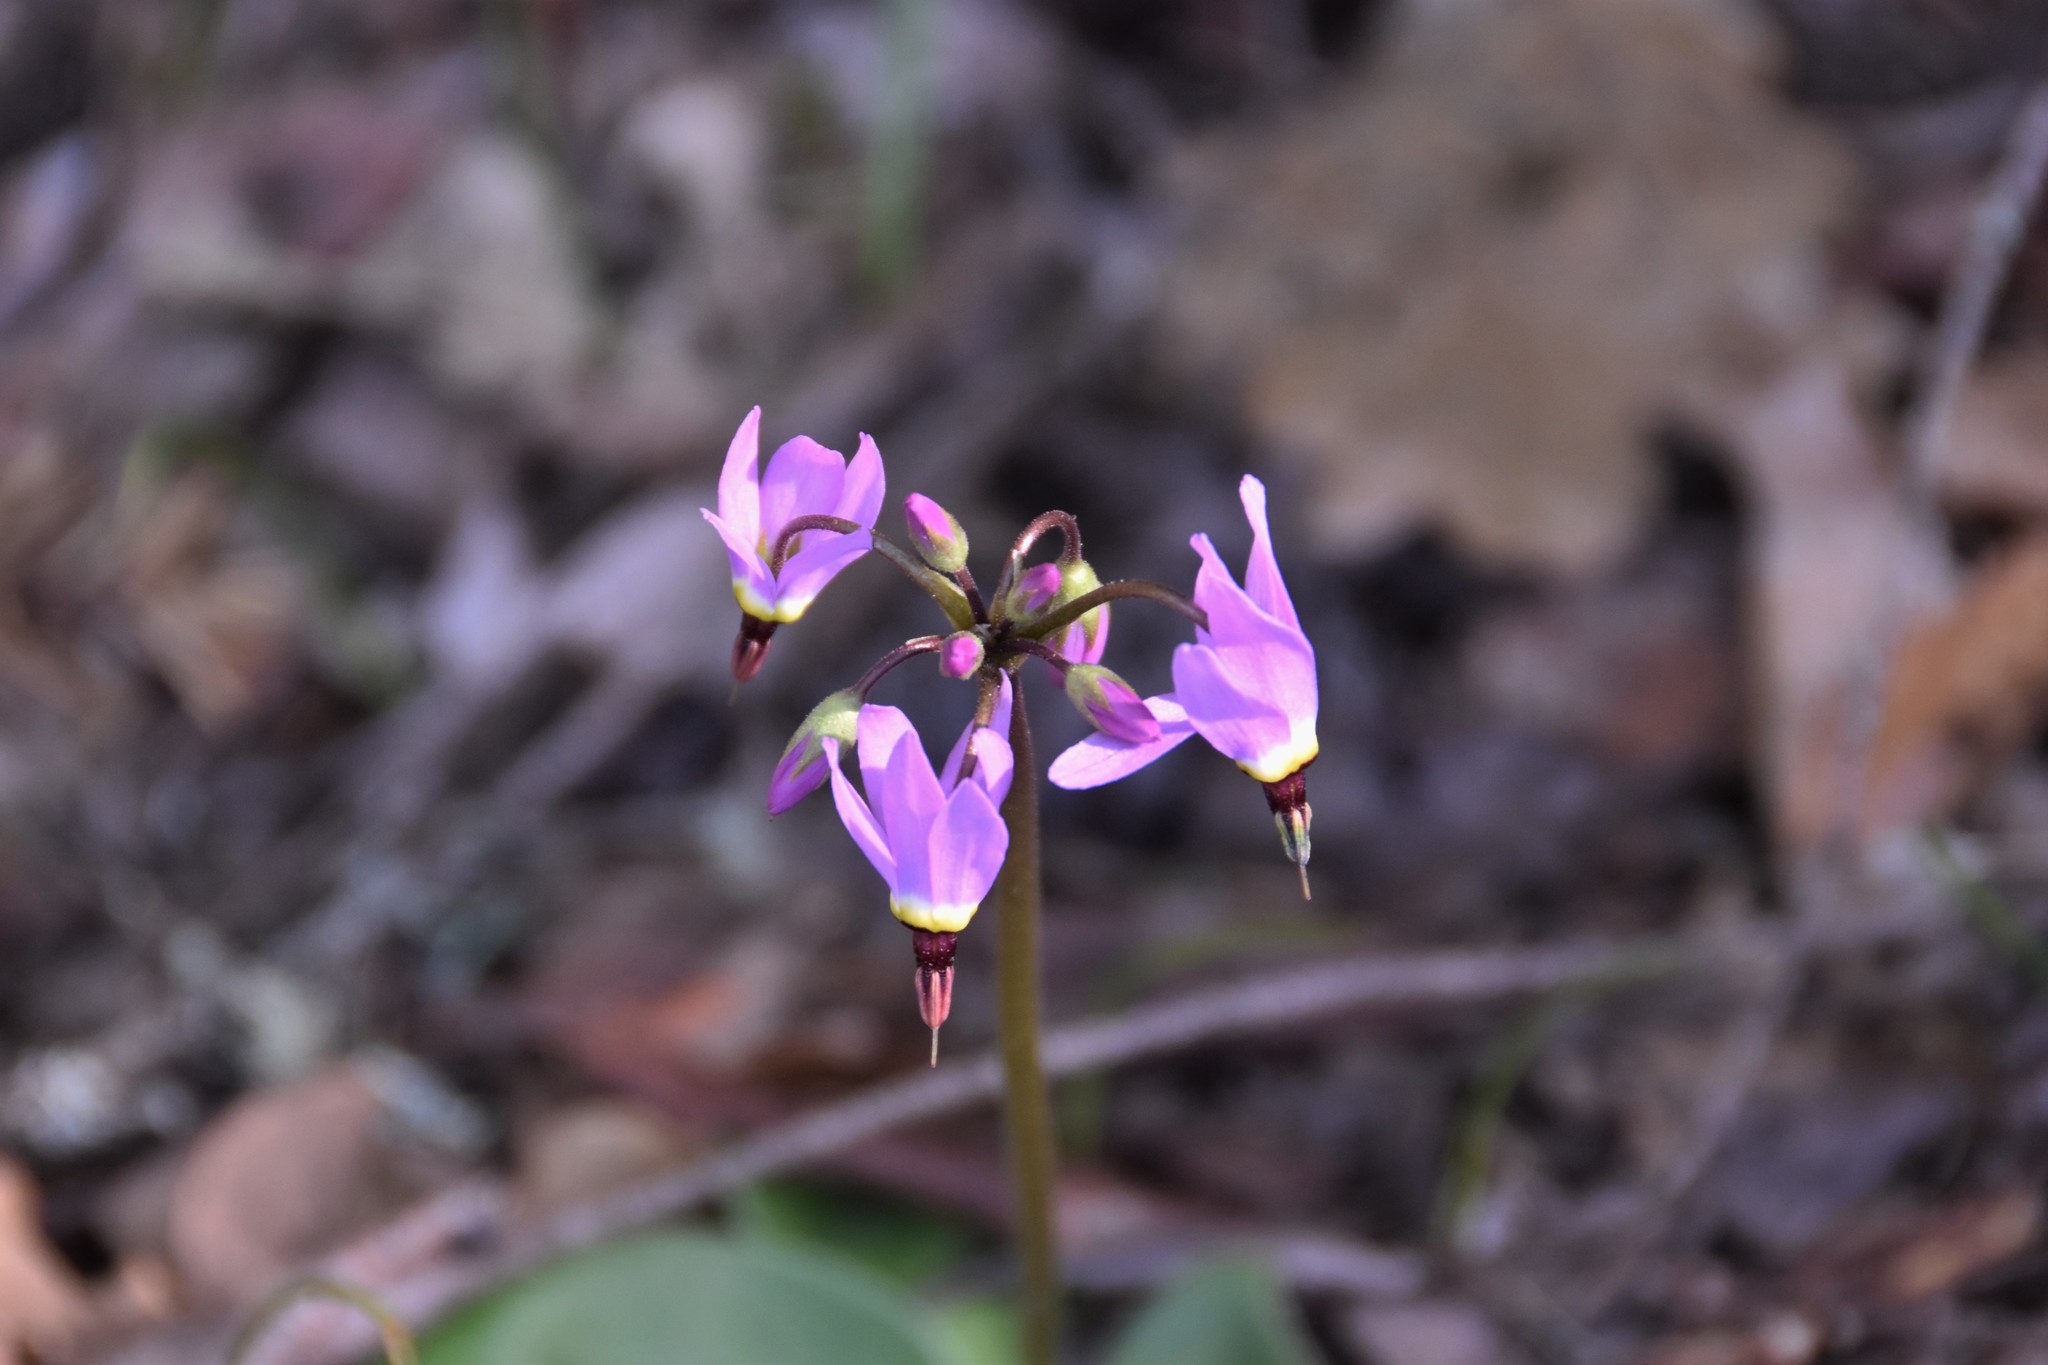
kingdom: Plantae
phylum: Tracheophyta
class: Magnoliopsida
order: Ericales
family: Primulaceae
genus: Dodecatheon
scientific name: Dodecatheon hendersonii
